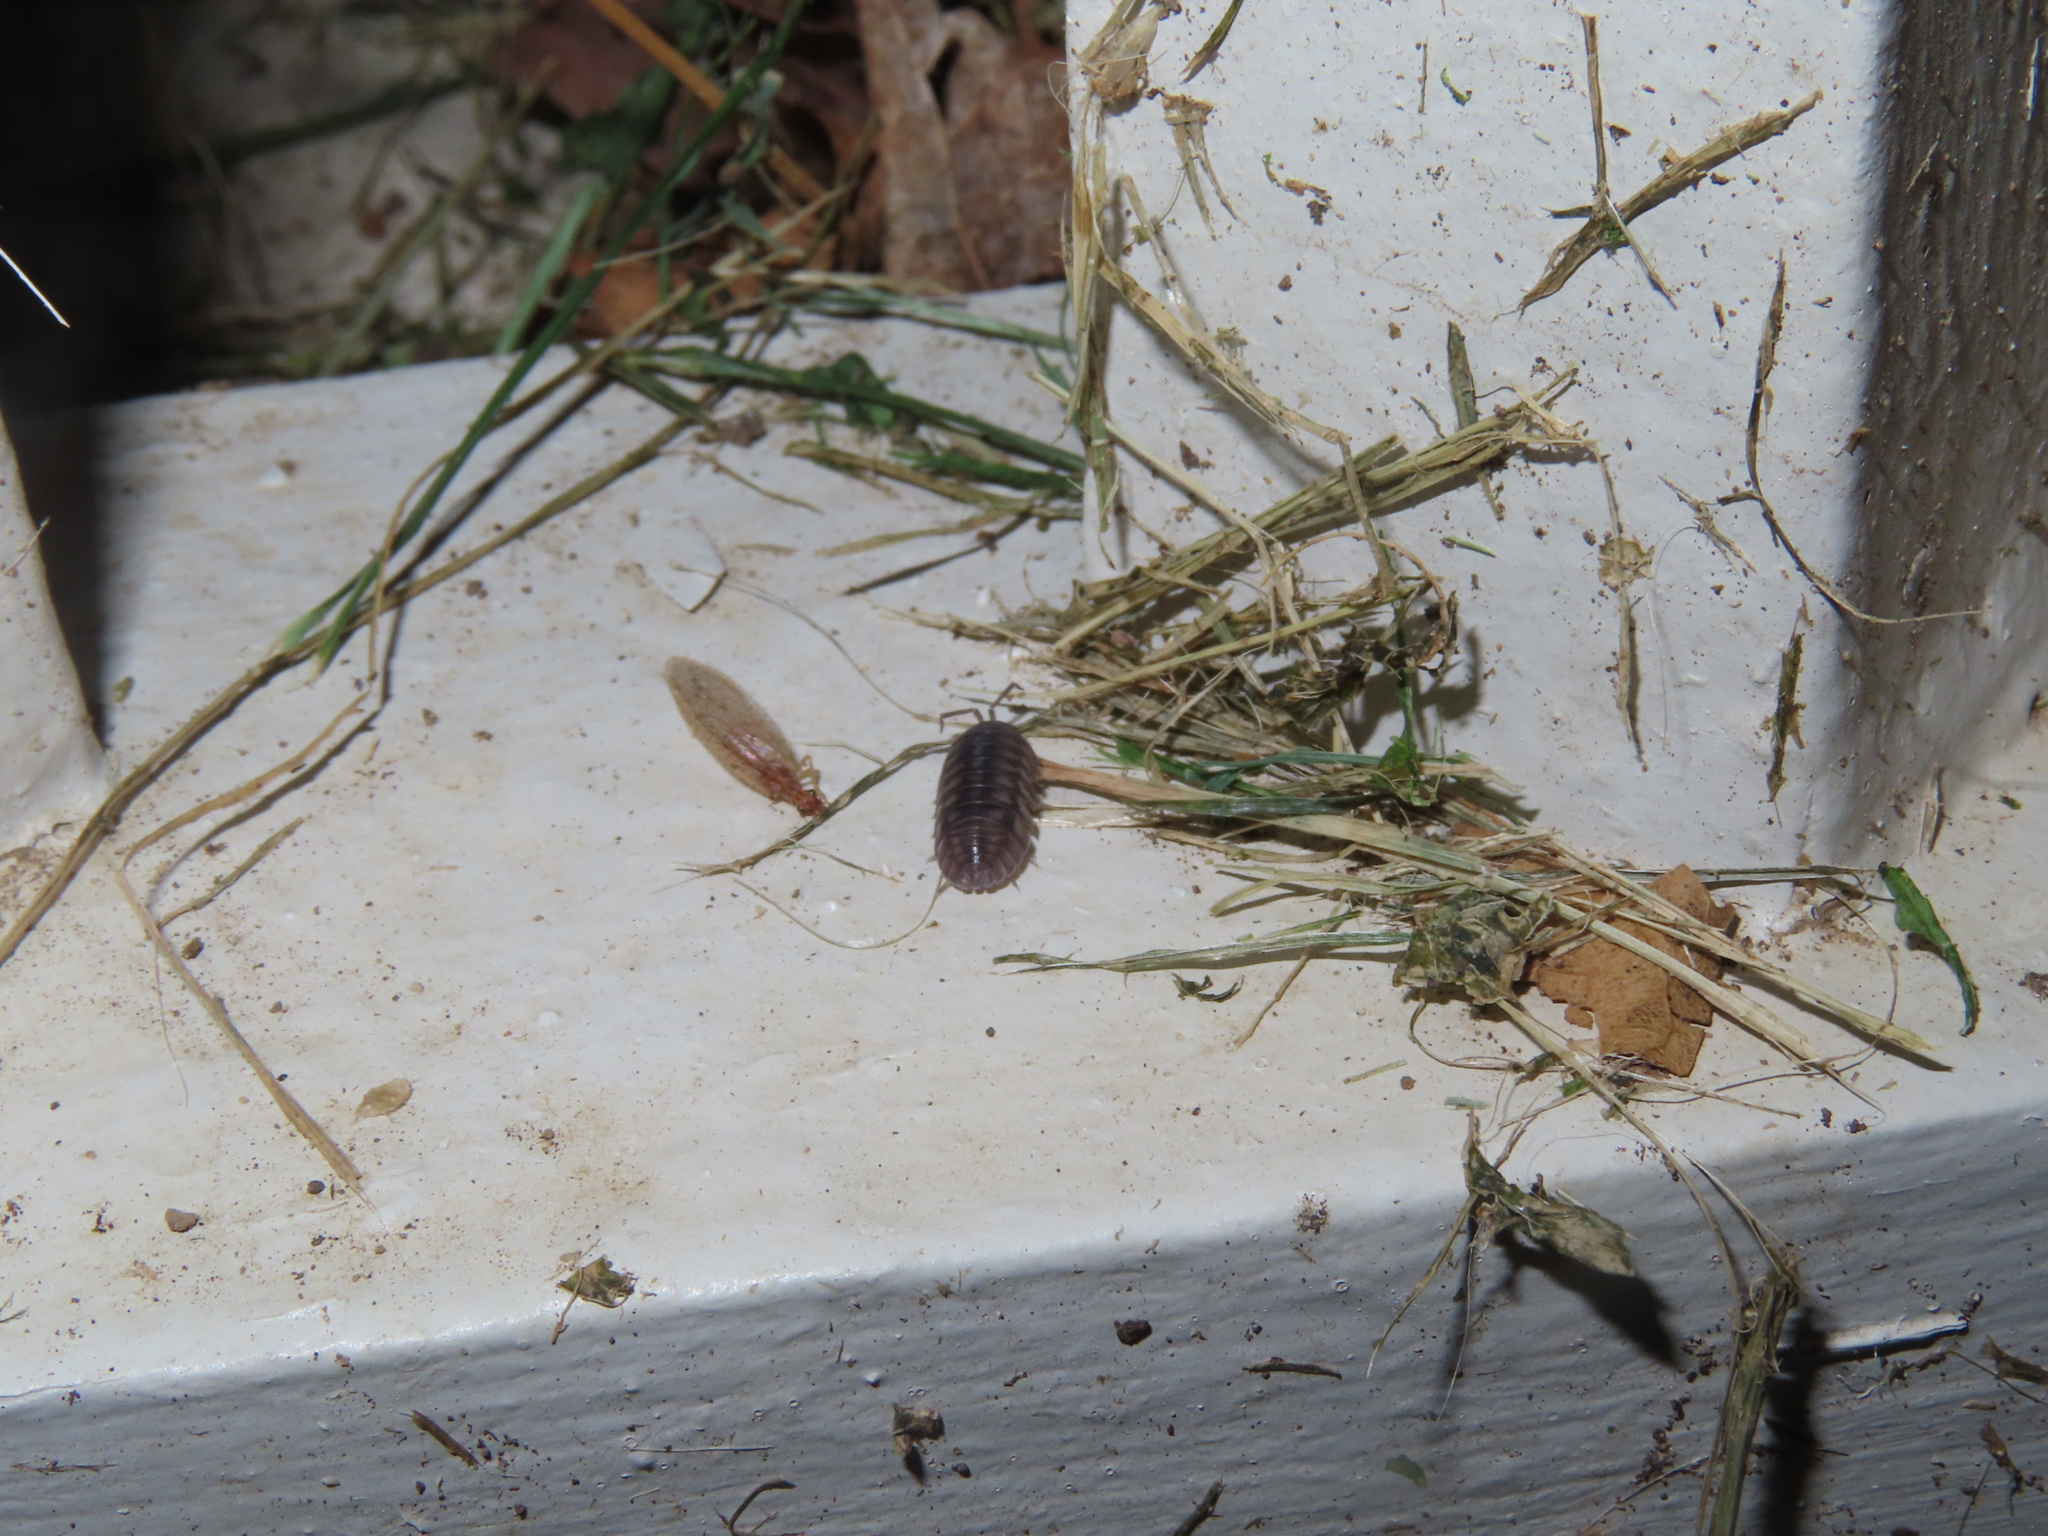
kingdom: Animalia
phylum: Arthropoda
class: Malacostraca
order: Isopoda
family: Armadillidiidae
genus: Armadillidium
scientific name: Armadillidium nasatum
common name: Isopod
